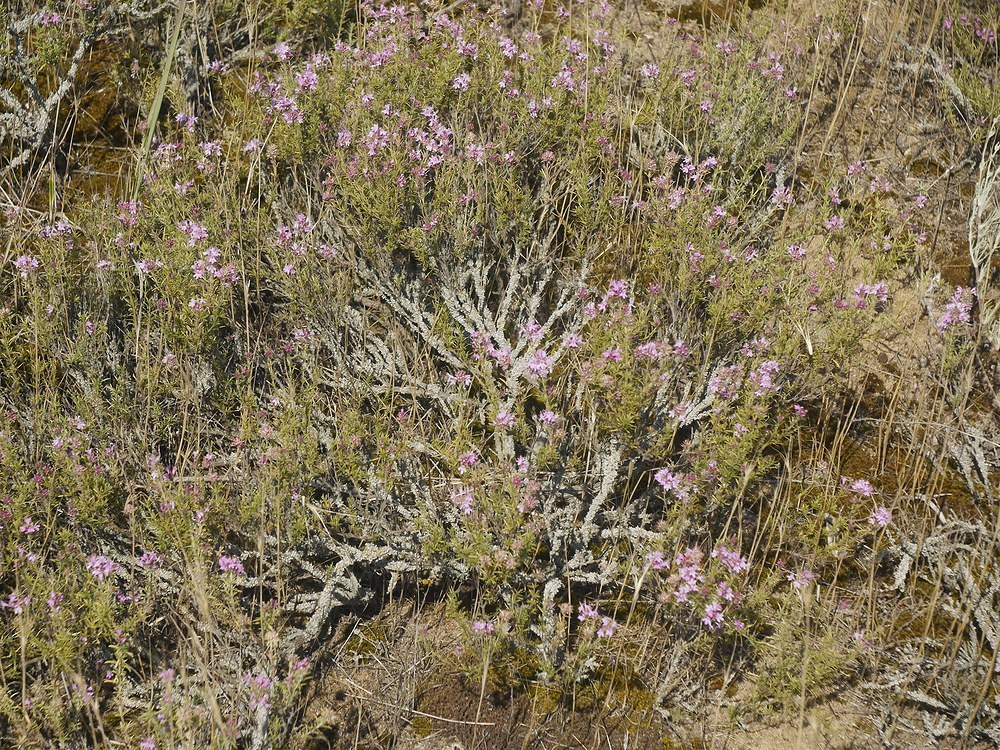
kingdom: Plantae
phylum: Tracheophyta
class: Magnoliopsida
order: Lamiales
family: Lamiaceae
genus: Thymus
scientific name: Thymus pallasianus
